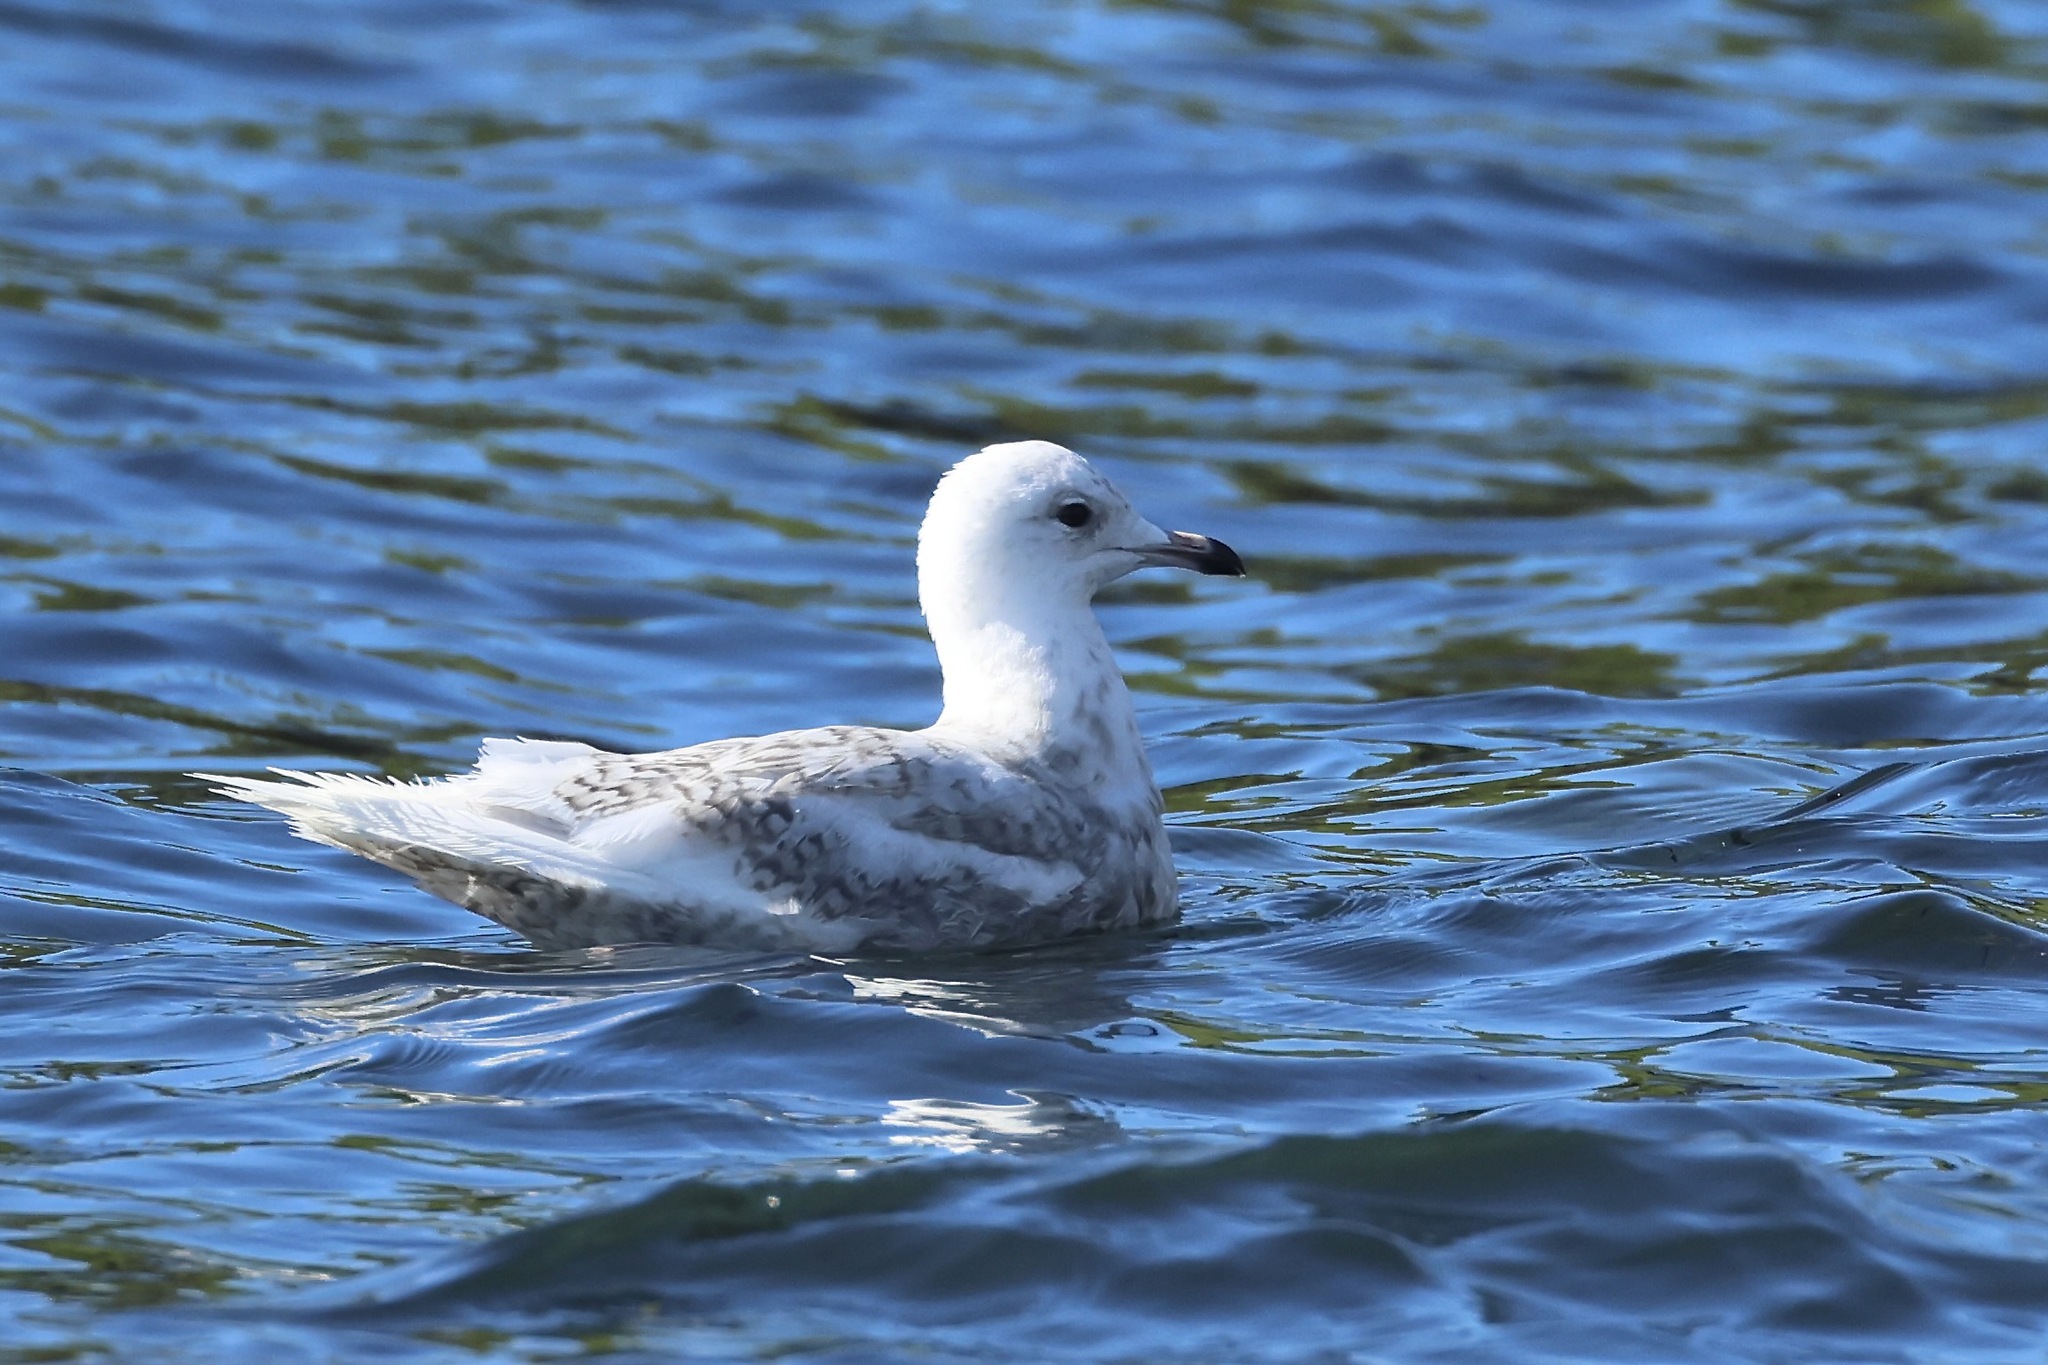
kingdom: Animalia
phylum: Chordata
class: Aves
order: Charadriiformes
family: Laridae
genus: Larus
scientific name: Larus glaucoides
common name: Iceland gull
